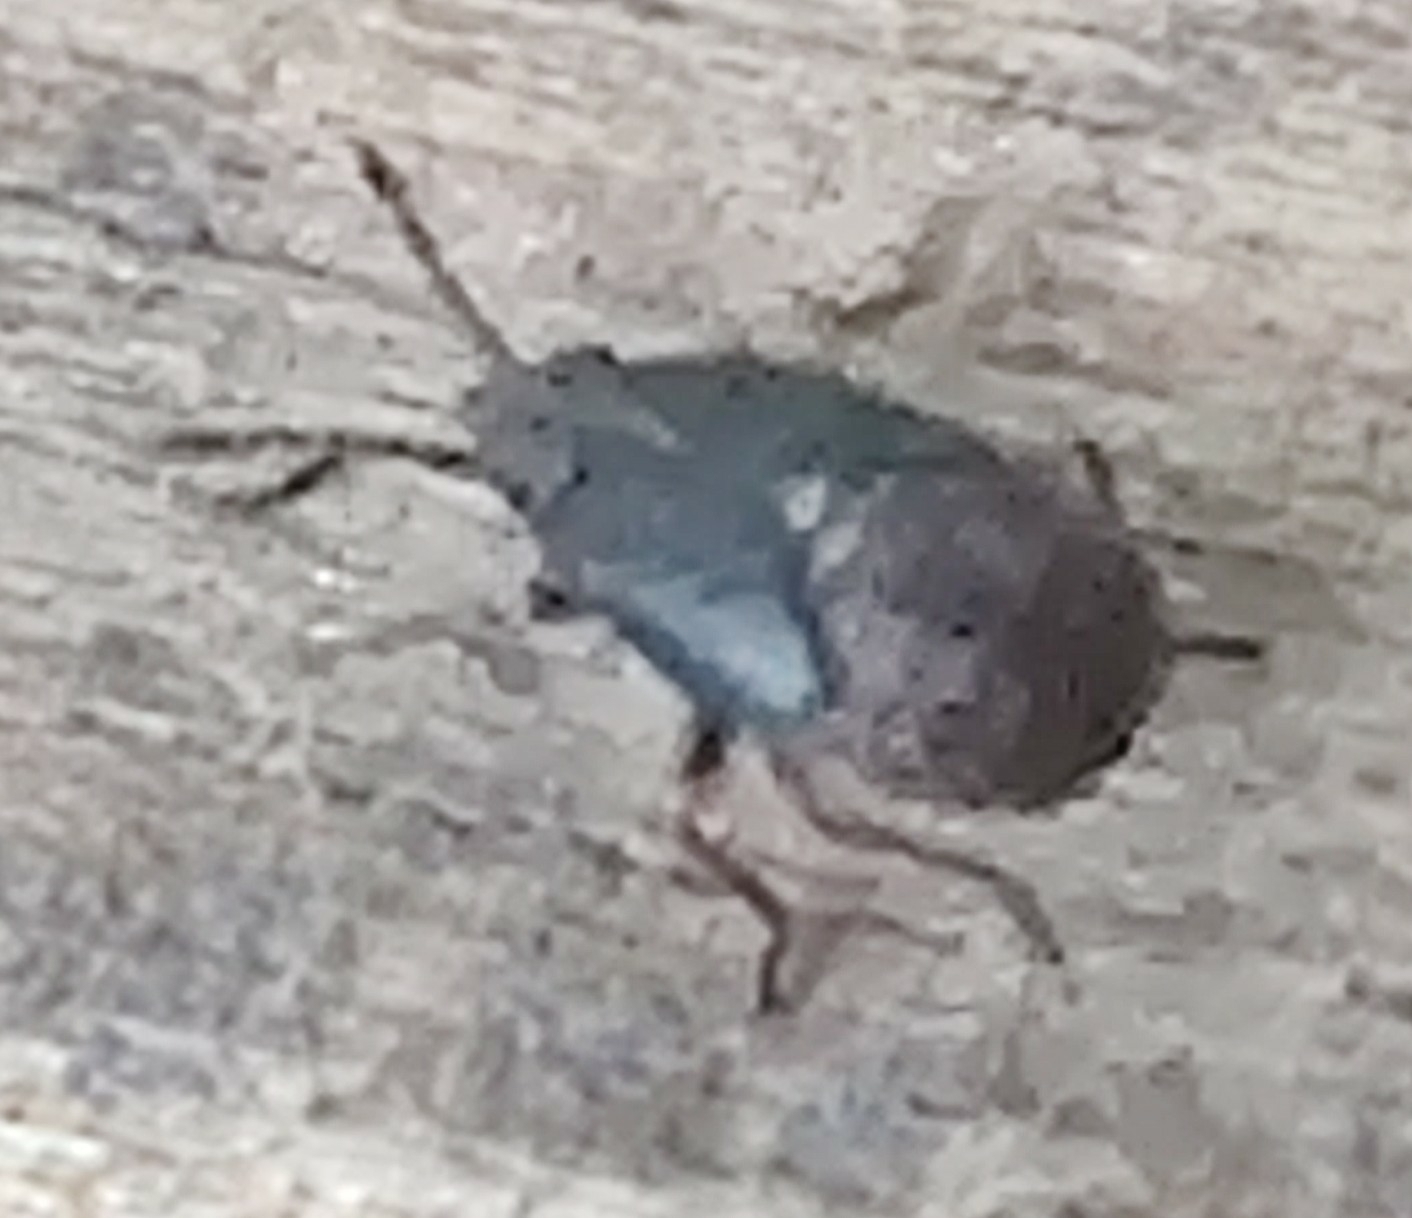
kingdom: Animalia
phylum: Arthropoda
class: Insecta
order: Hemiptera
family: Lygaeidae
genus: Kleidocerys
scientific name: Kleidocerys resedae
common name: Birch catkin bug
